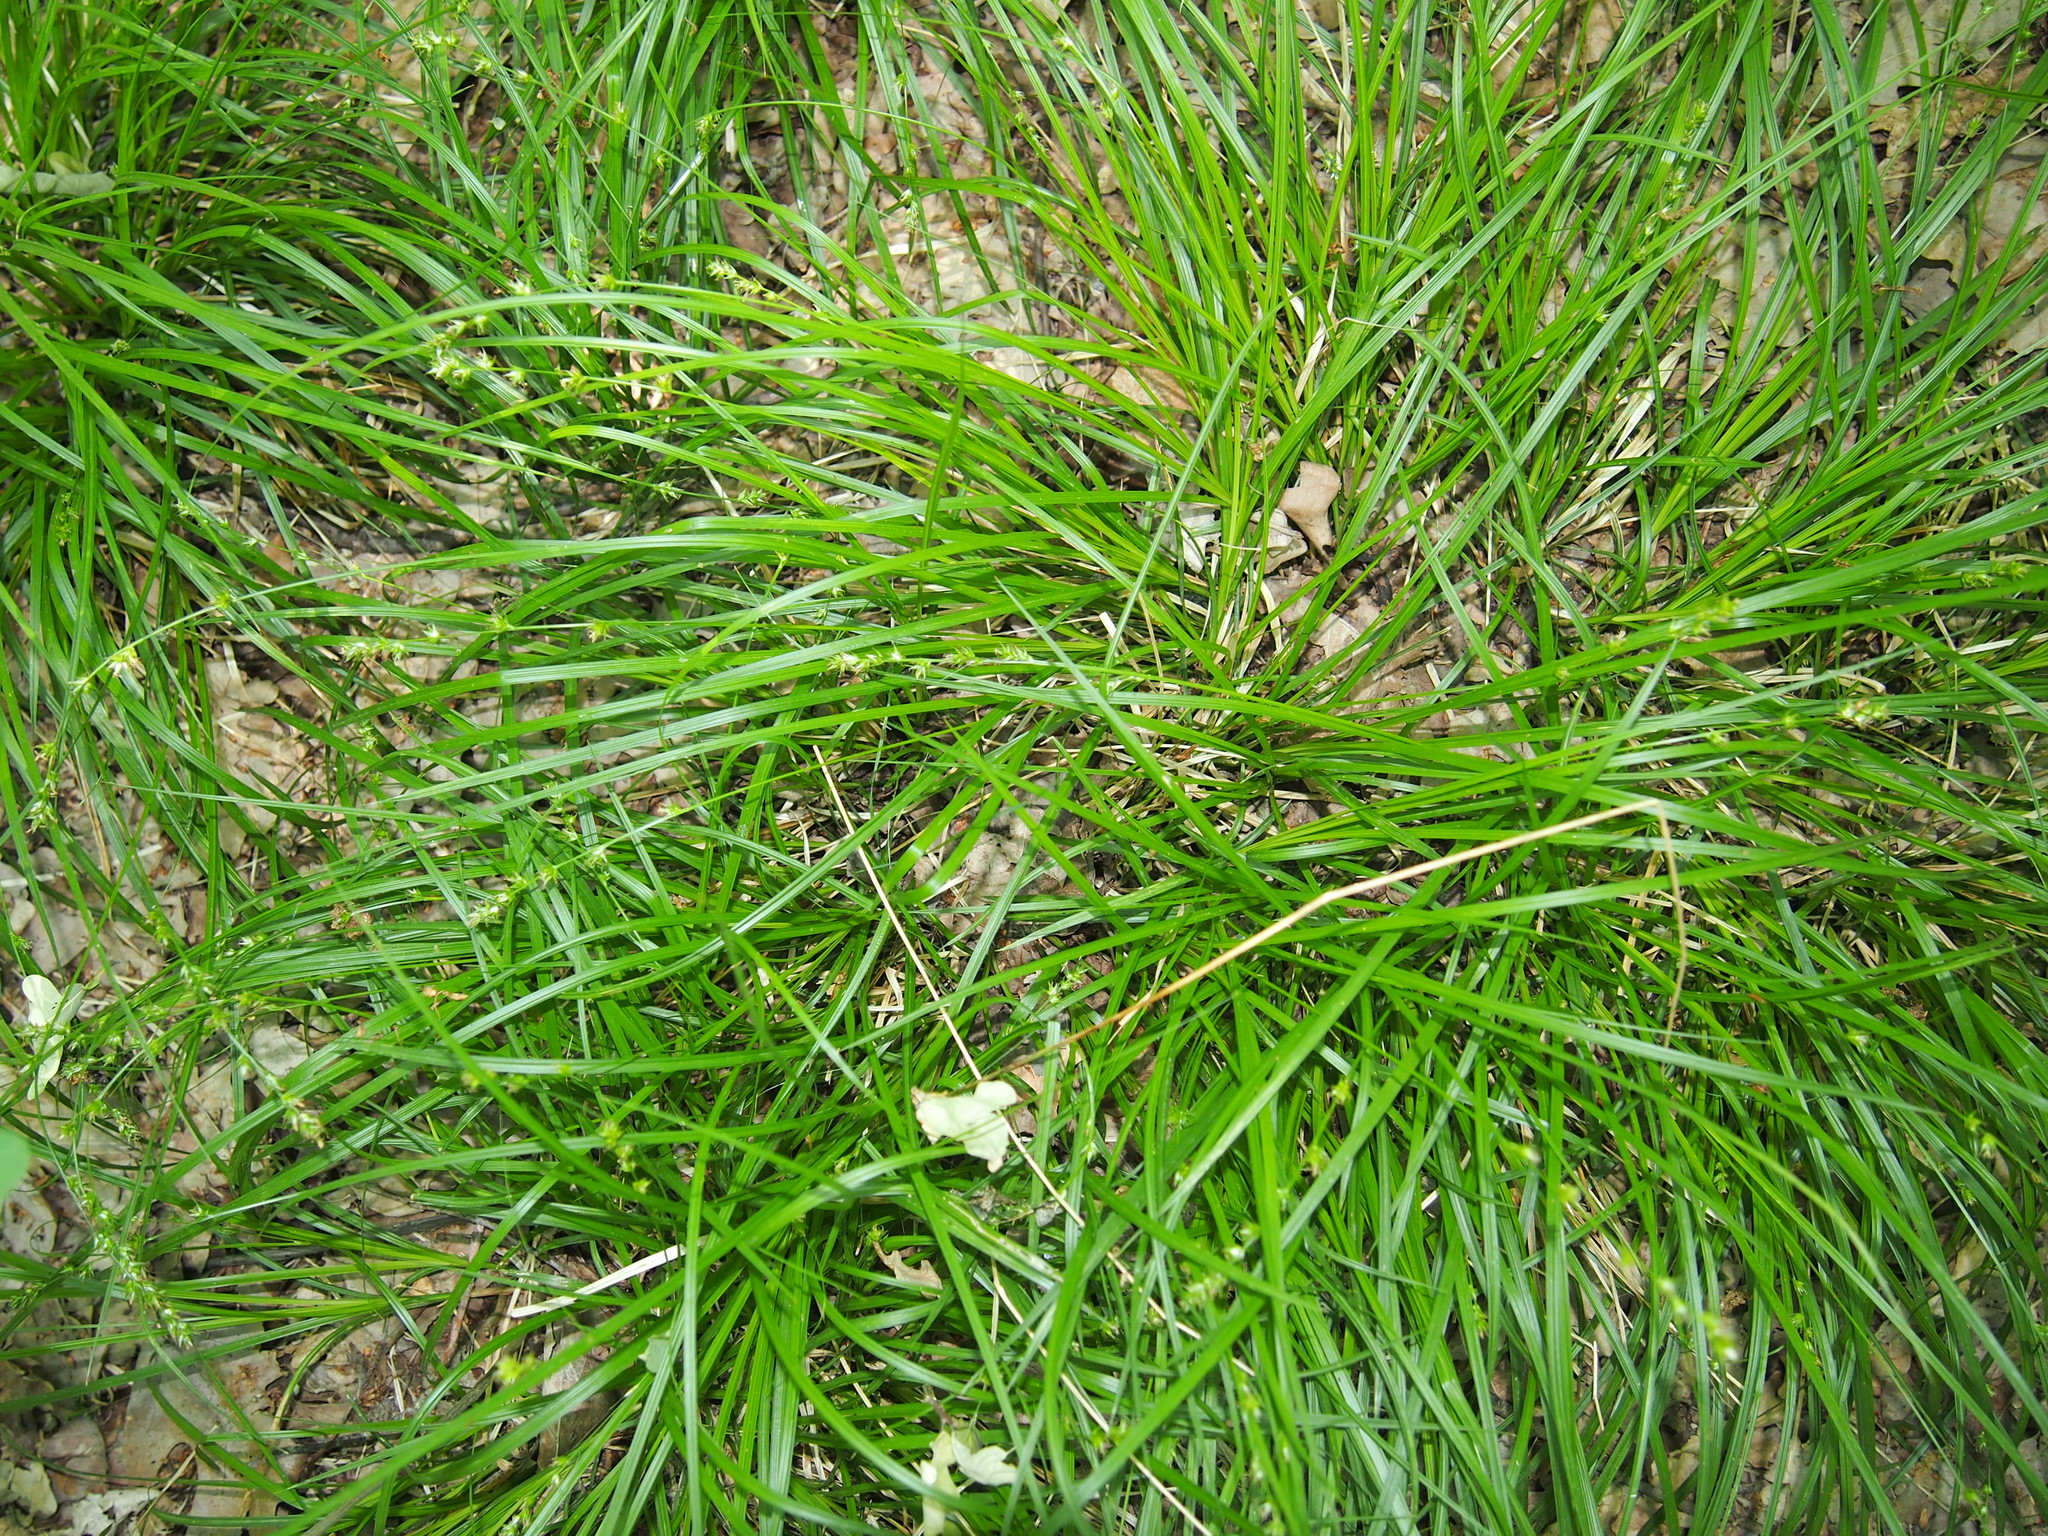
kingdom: Plantae
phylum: Tracheophyta
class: Liliopsida
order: Poales
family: Cyperaceae
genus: Carex
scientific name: Carex divulsa
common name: Grassland sedge
